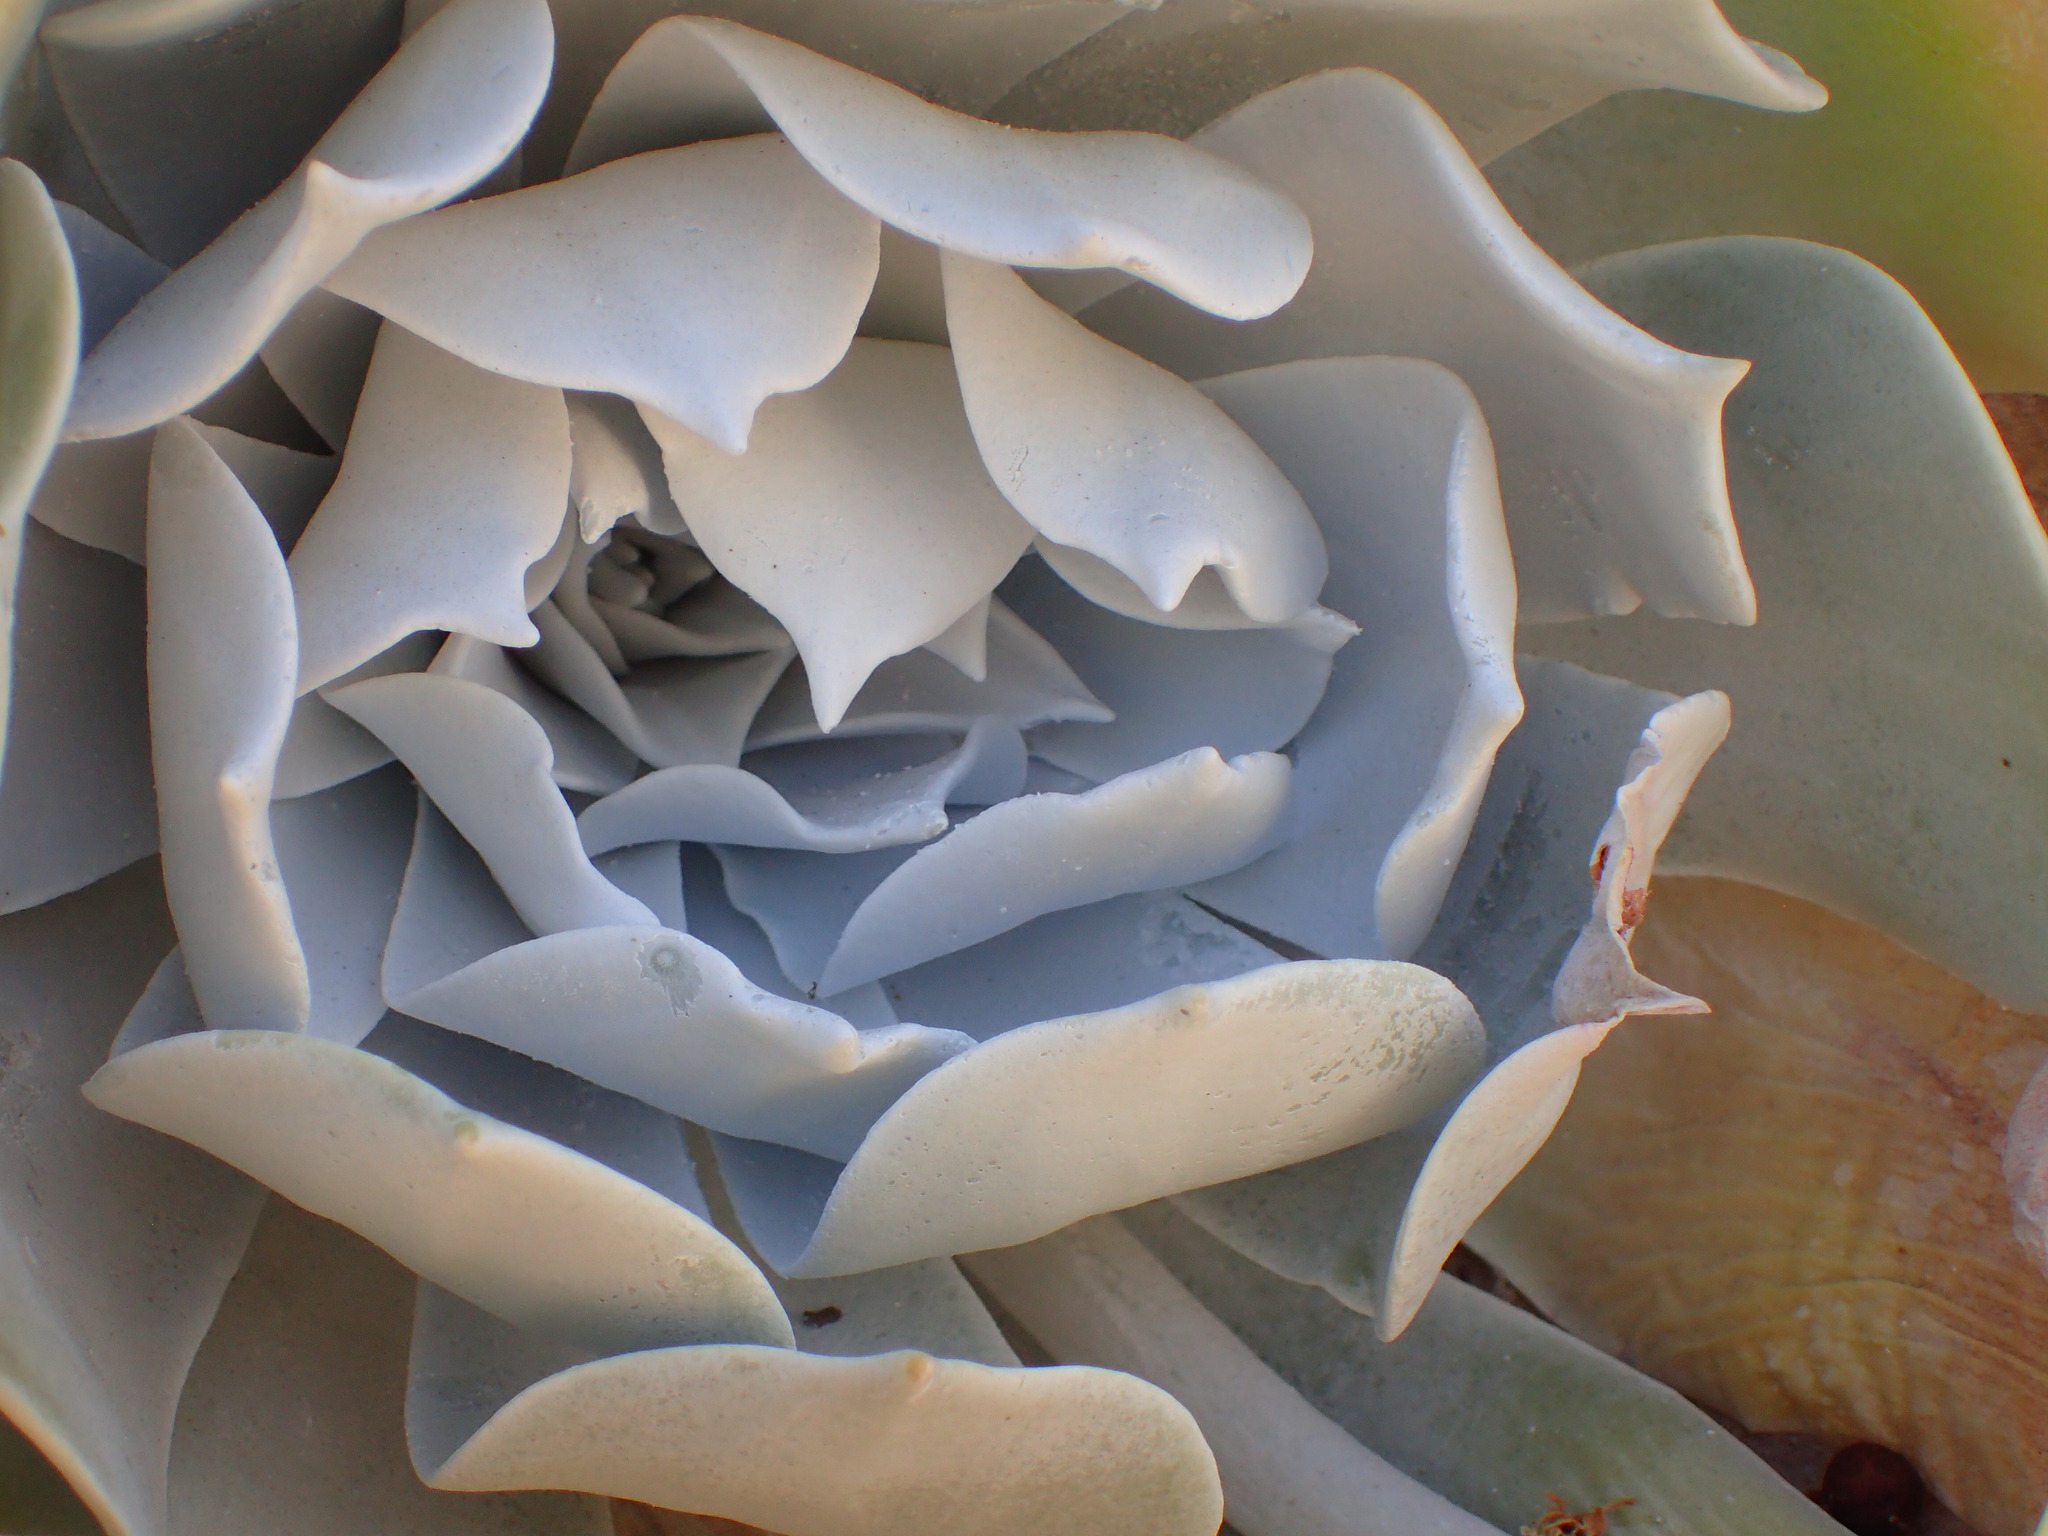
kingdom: Plantae
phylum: Tracheophyta
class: Magnoliopsida
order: Saxifragales
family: Crassulaceae
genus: Dudleya
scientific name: Dudleya pulverulenta
